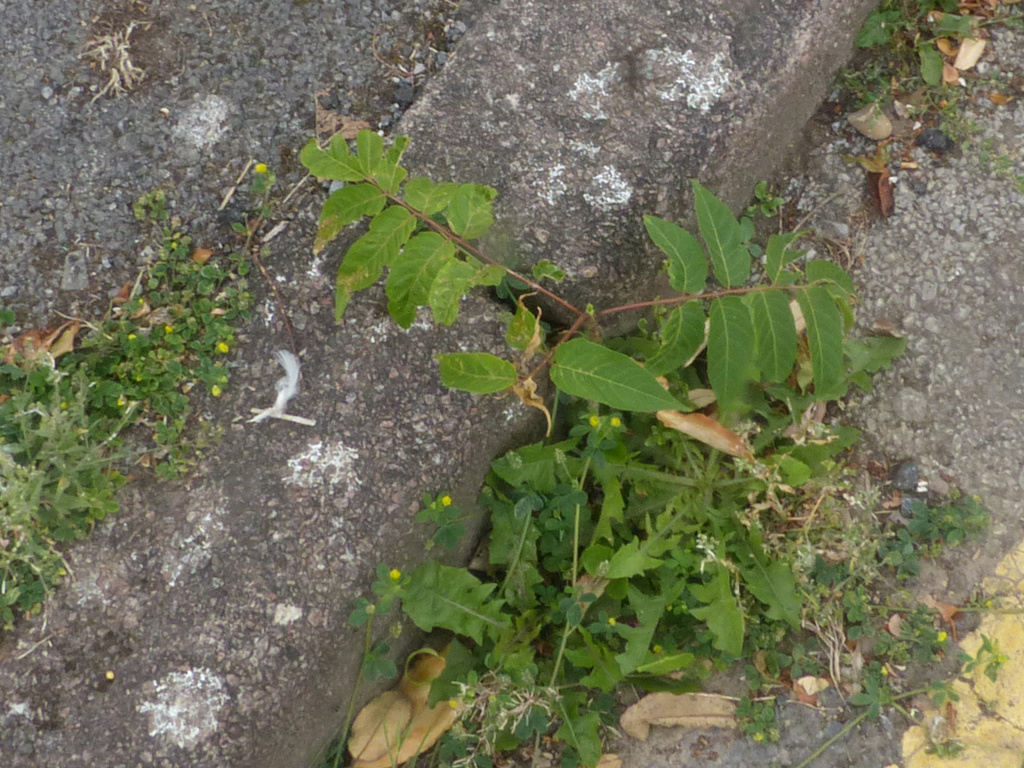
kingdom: Plantae
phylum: Tracheophyta
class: Magnoliopsida
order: Sapindales
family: Simaroubaceae
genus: Ailanthus
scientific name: Ailanthus altissima
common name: Tree-of-heaven
